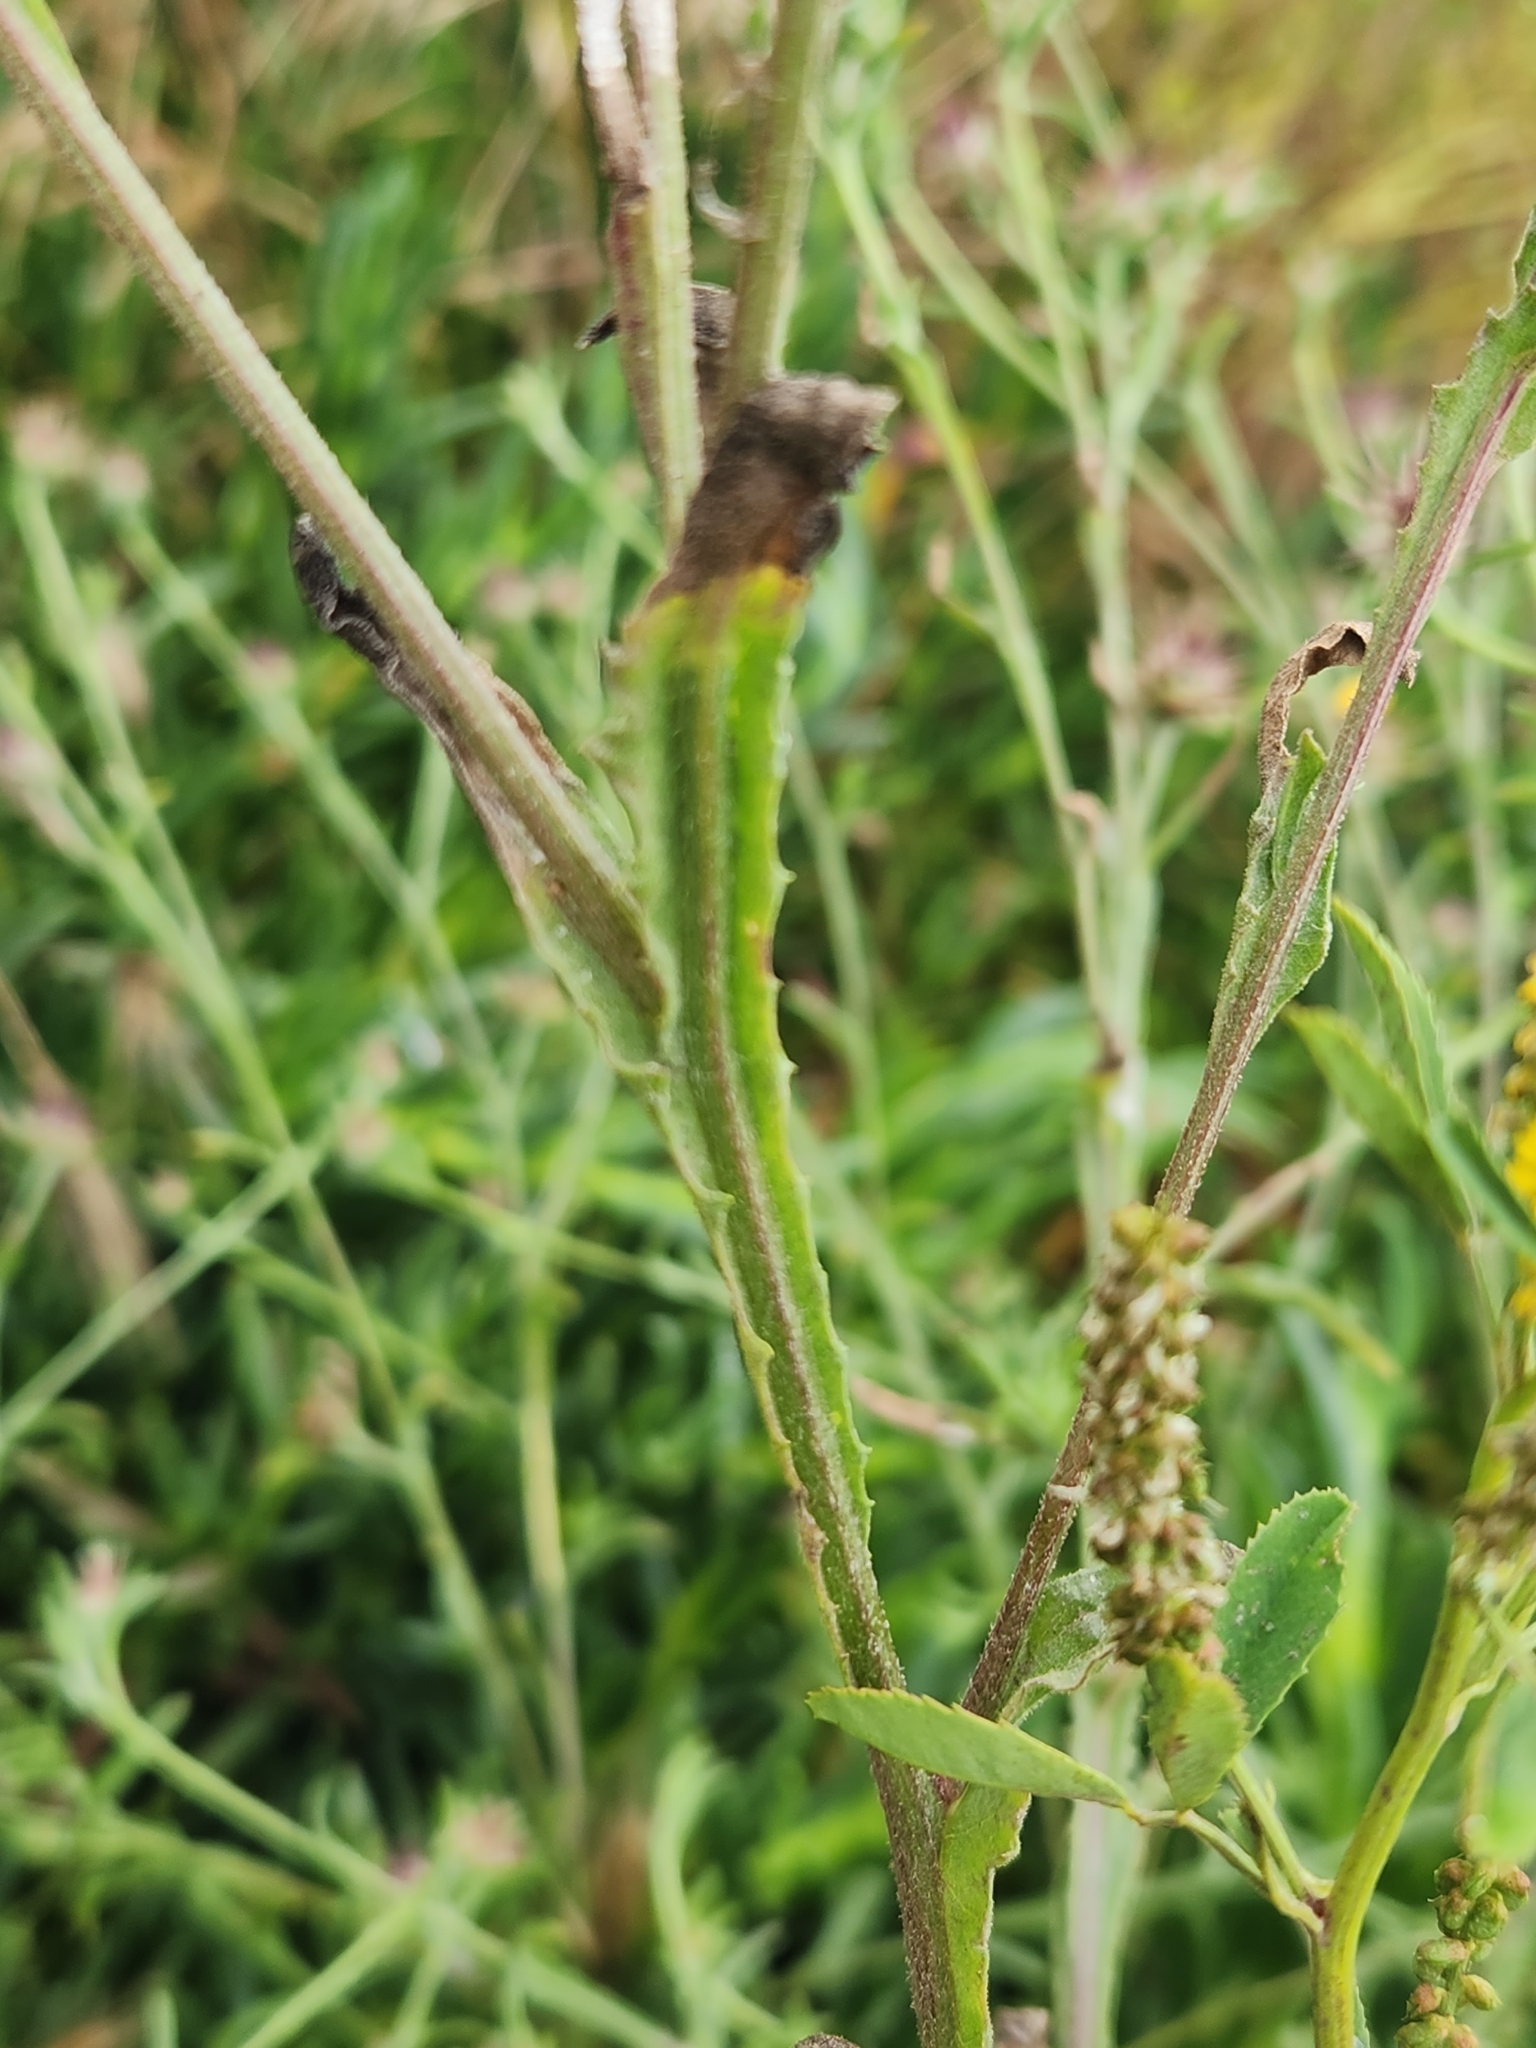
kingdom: Plantae
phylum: Tracheophyta
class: Magnoliopsida
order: Asterales
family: Asteraceae
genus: Centaurea
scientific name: Centaurea melitensis
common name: Maltese star-thistle
